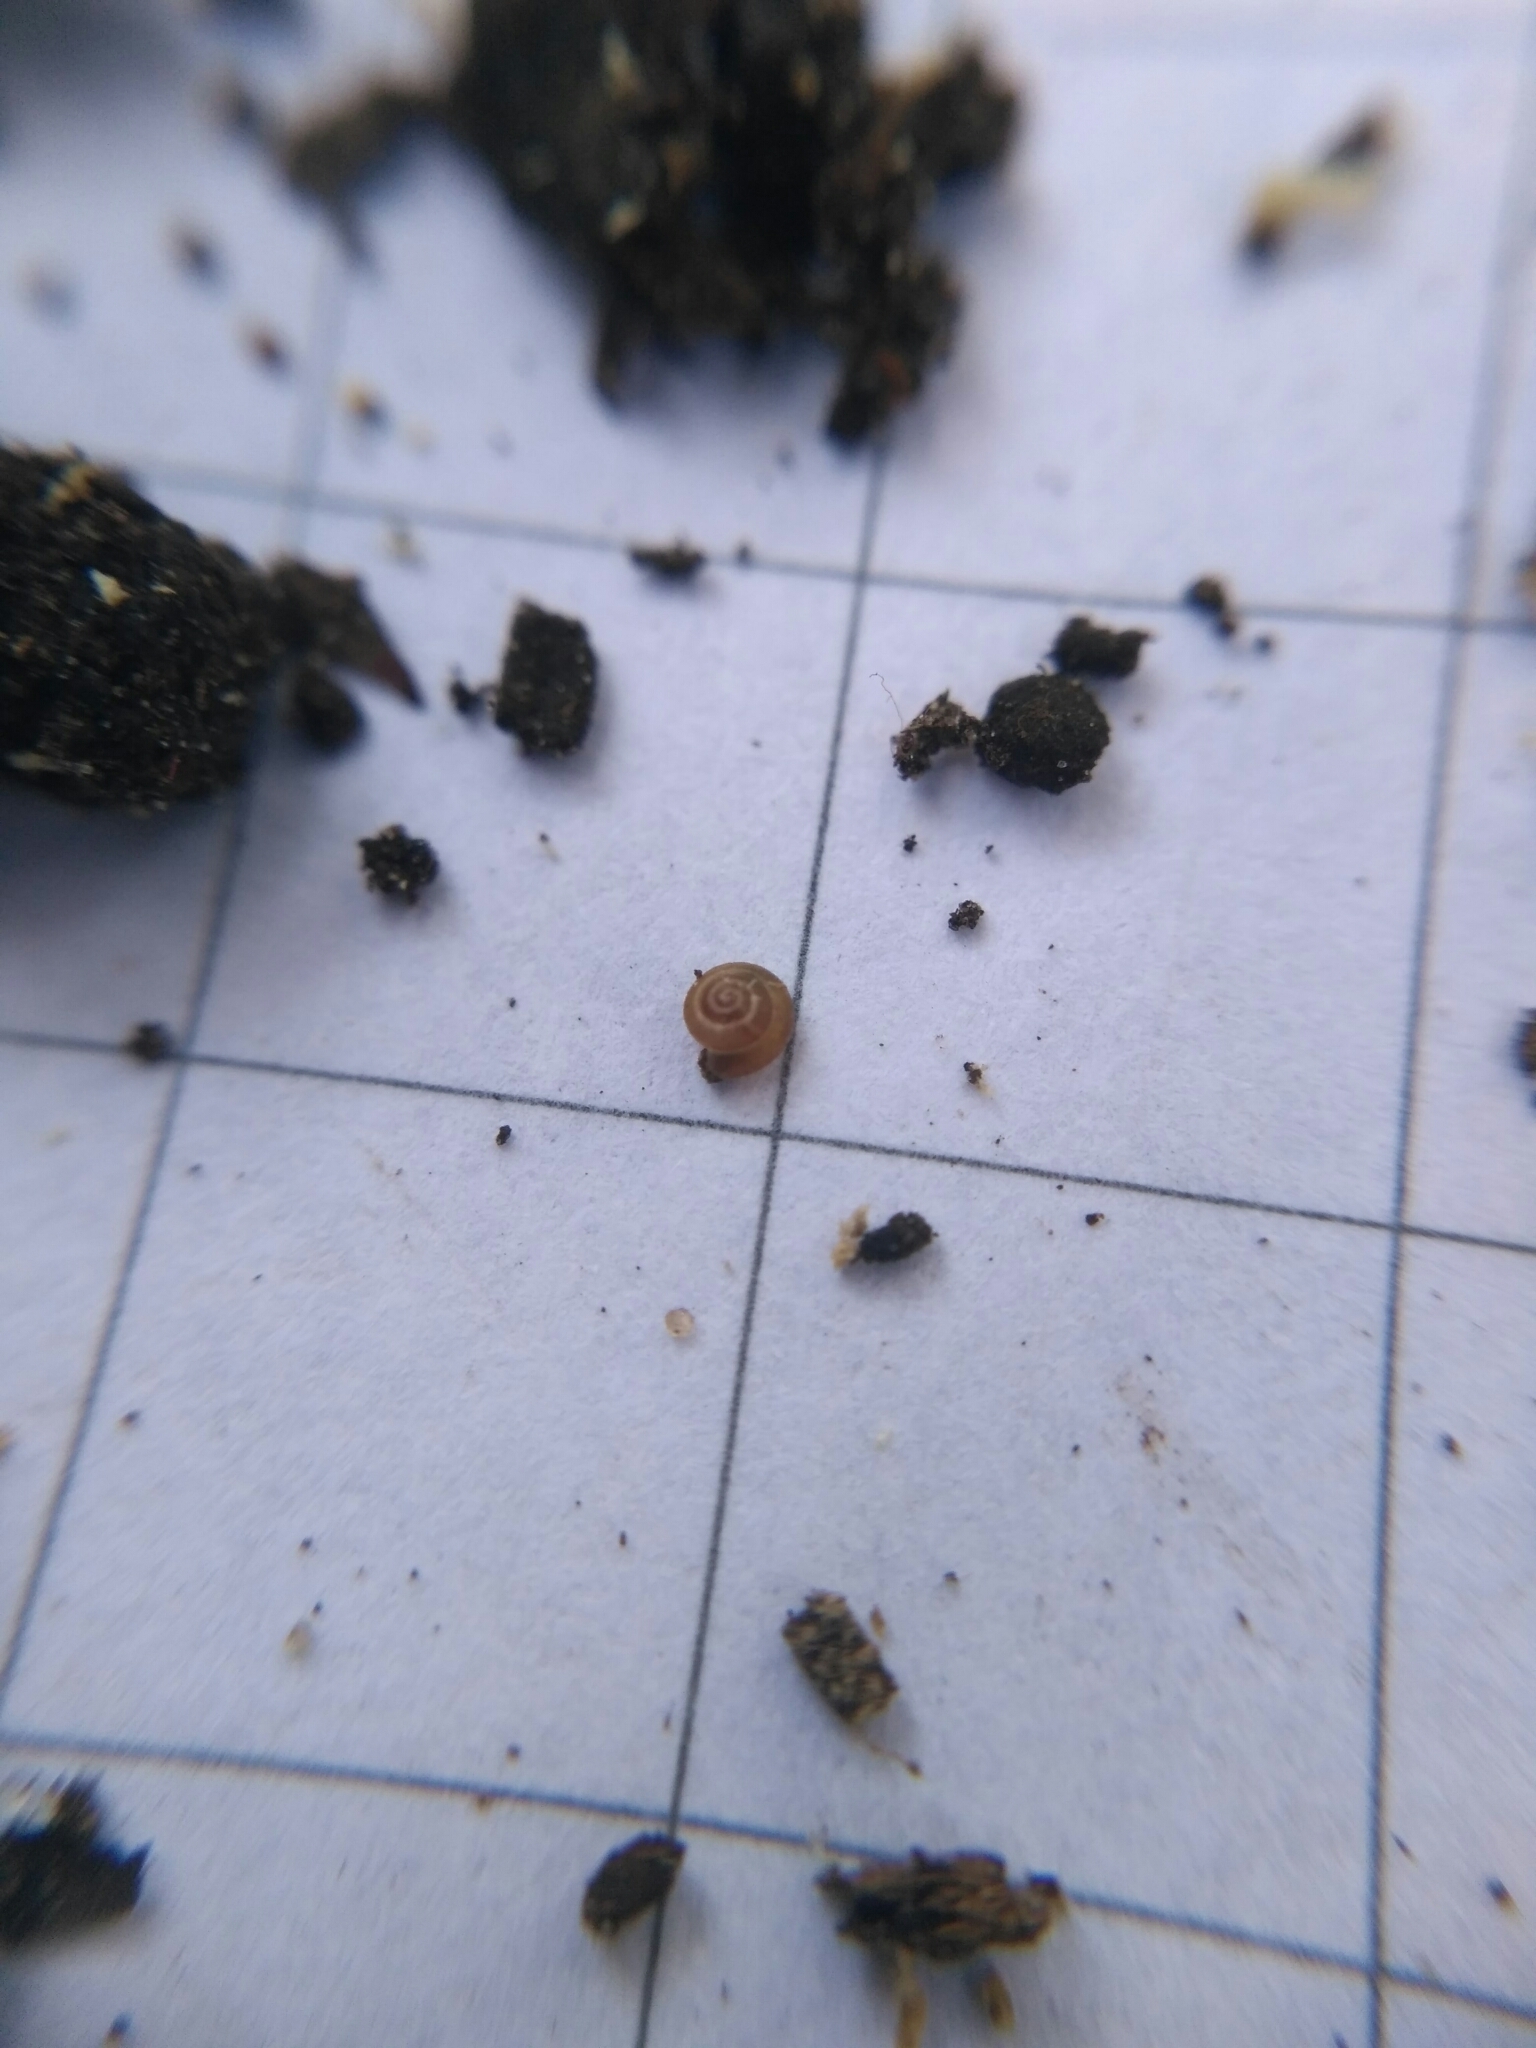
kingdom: Animalia
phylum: Mollusca
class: Gastropoda
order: Stylommatophora
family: Punctidae
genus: Punctum
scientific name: Punctum pygmaeum
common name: Dwarf snail
